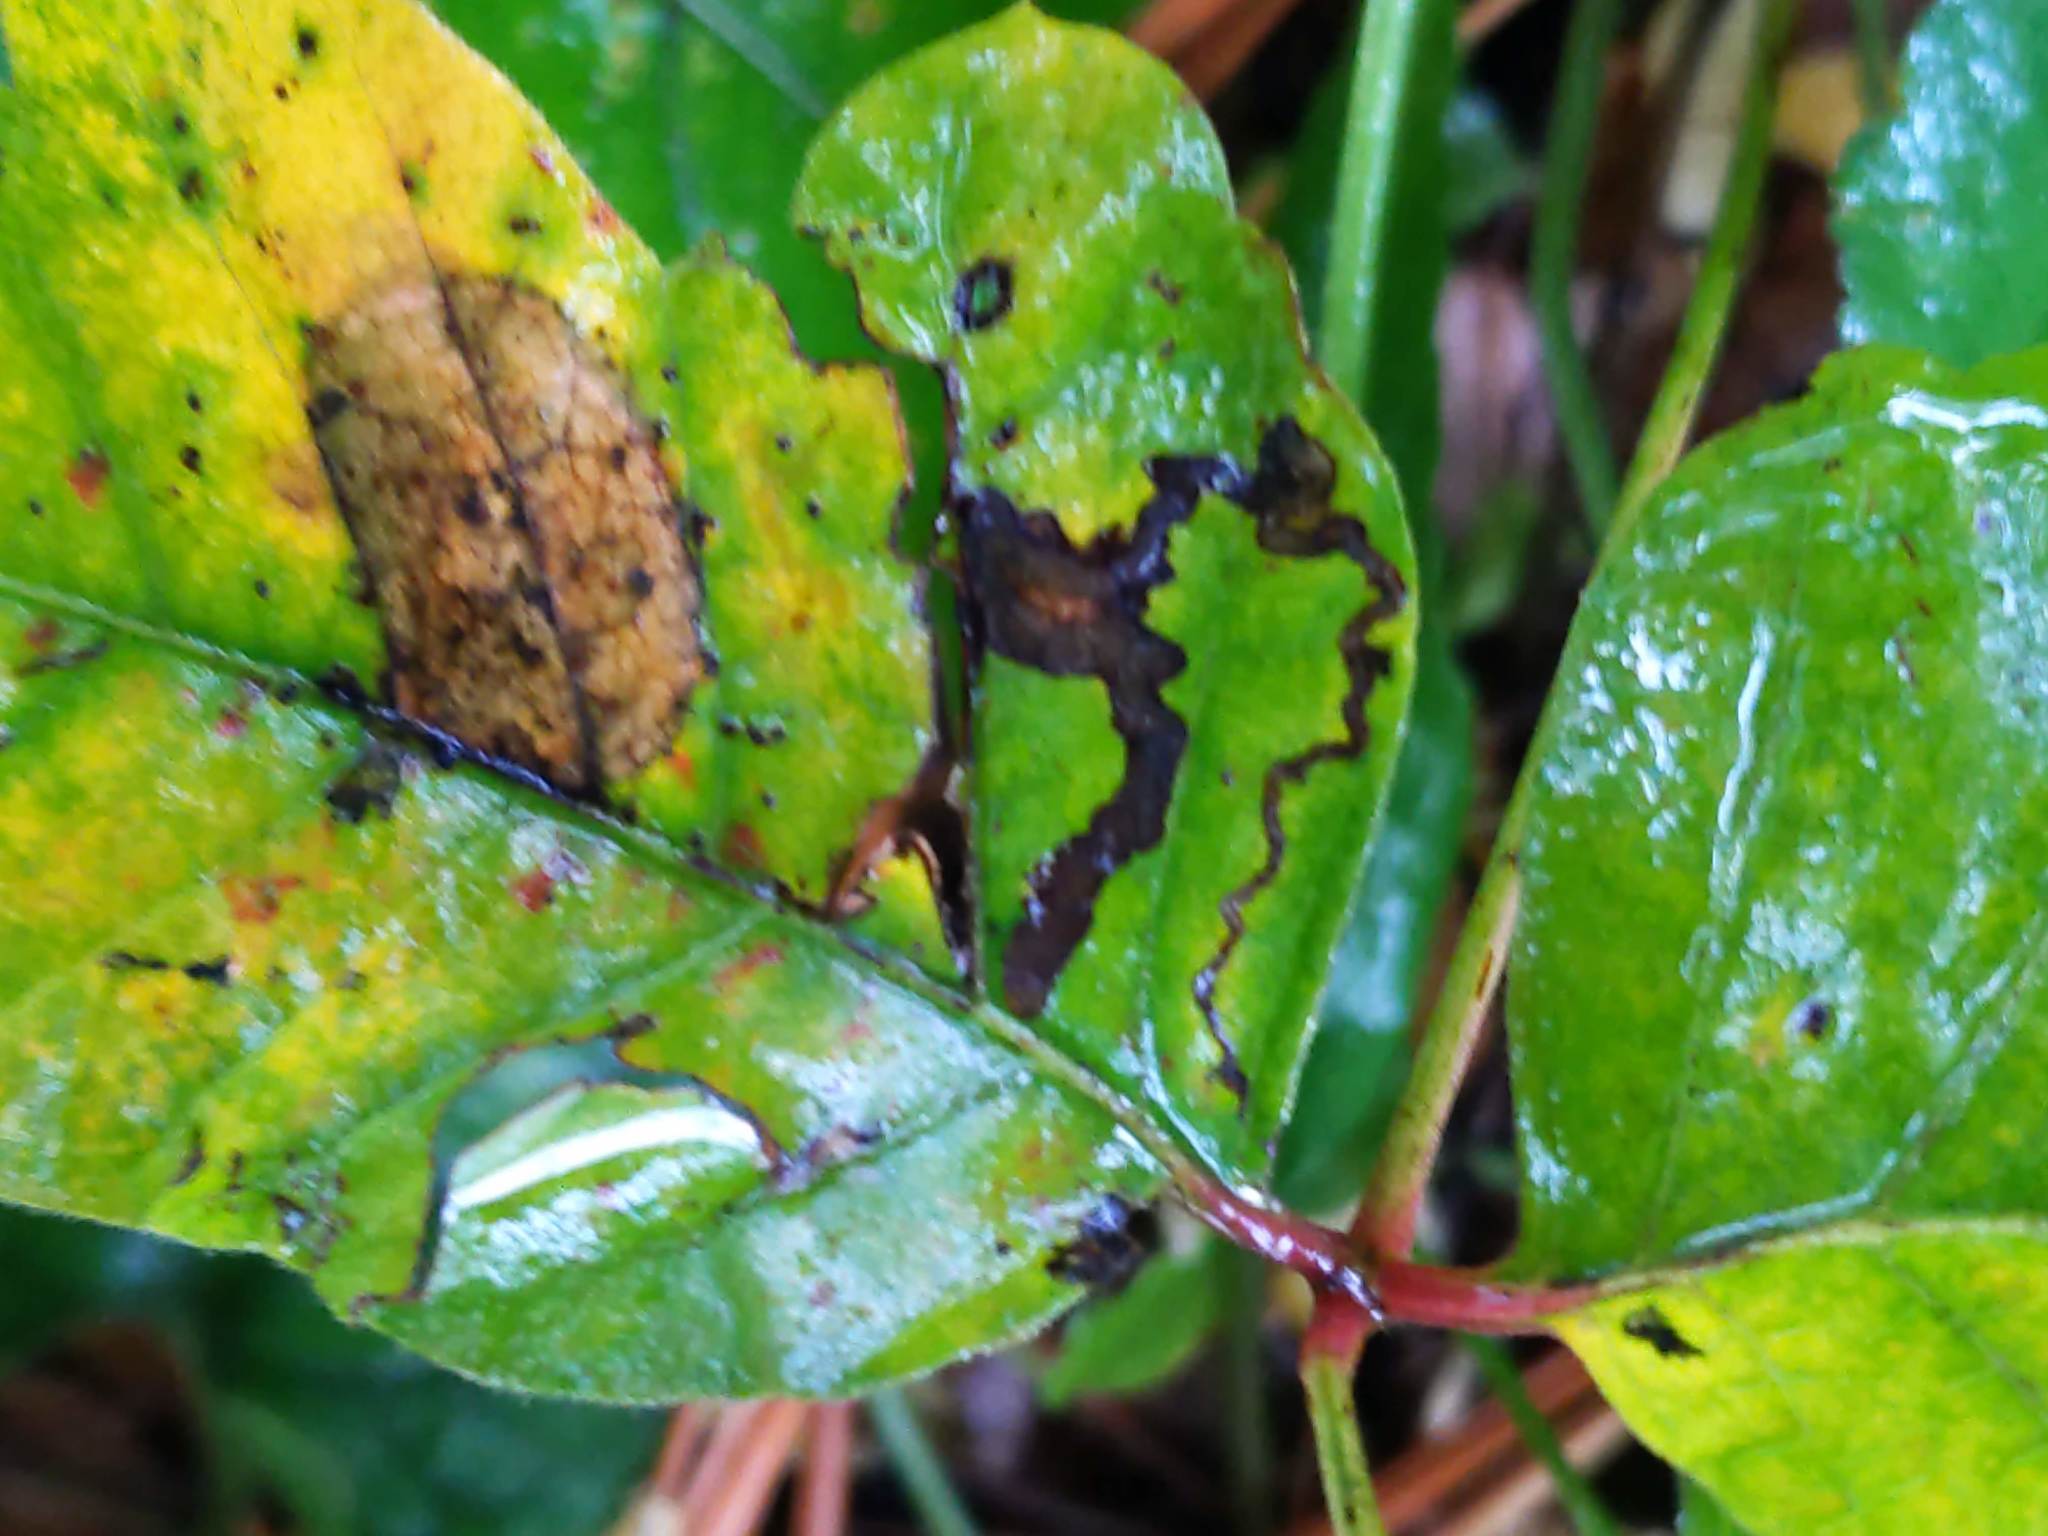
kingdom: Animalia
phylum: Arthropoda
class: Insecta
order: Lepidoptera
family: Nepticulidae
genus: Stigmella
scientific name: Stigmella rhoifoliella
